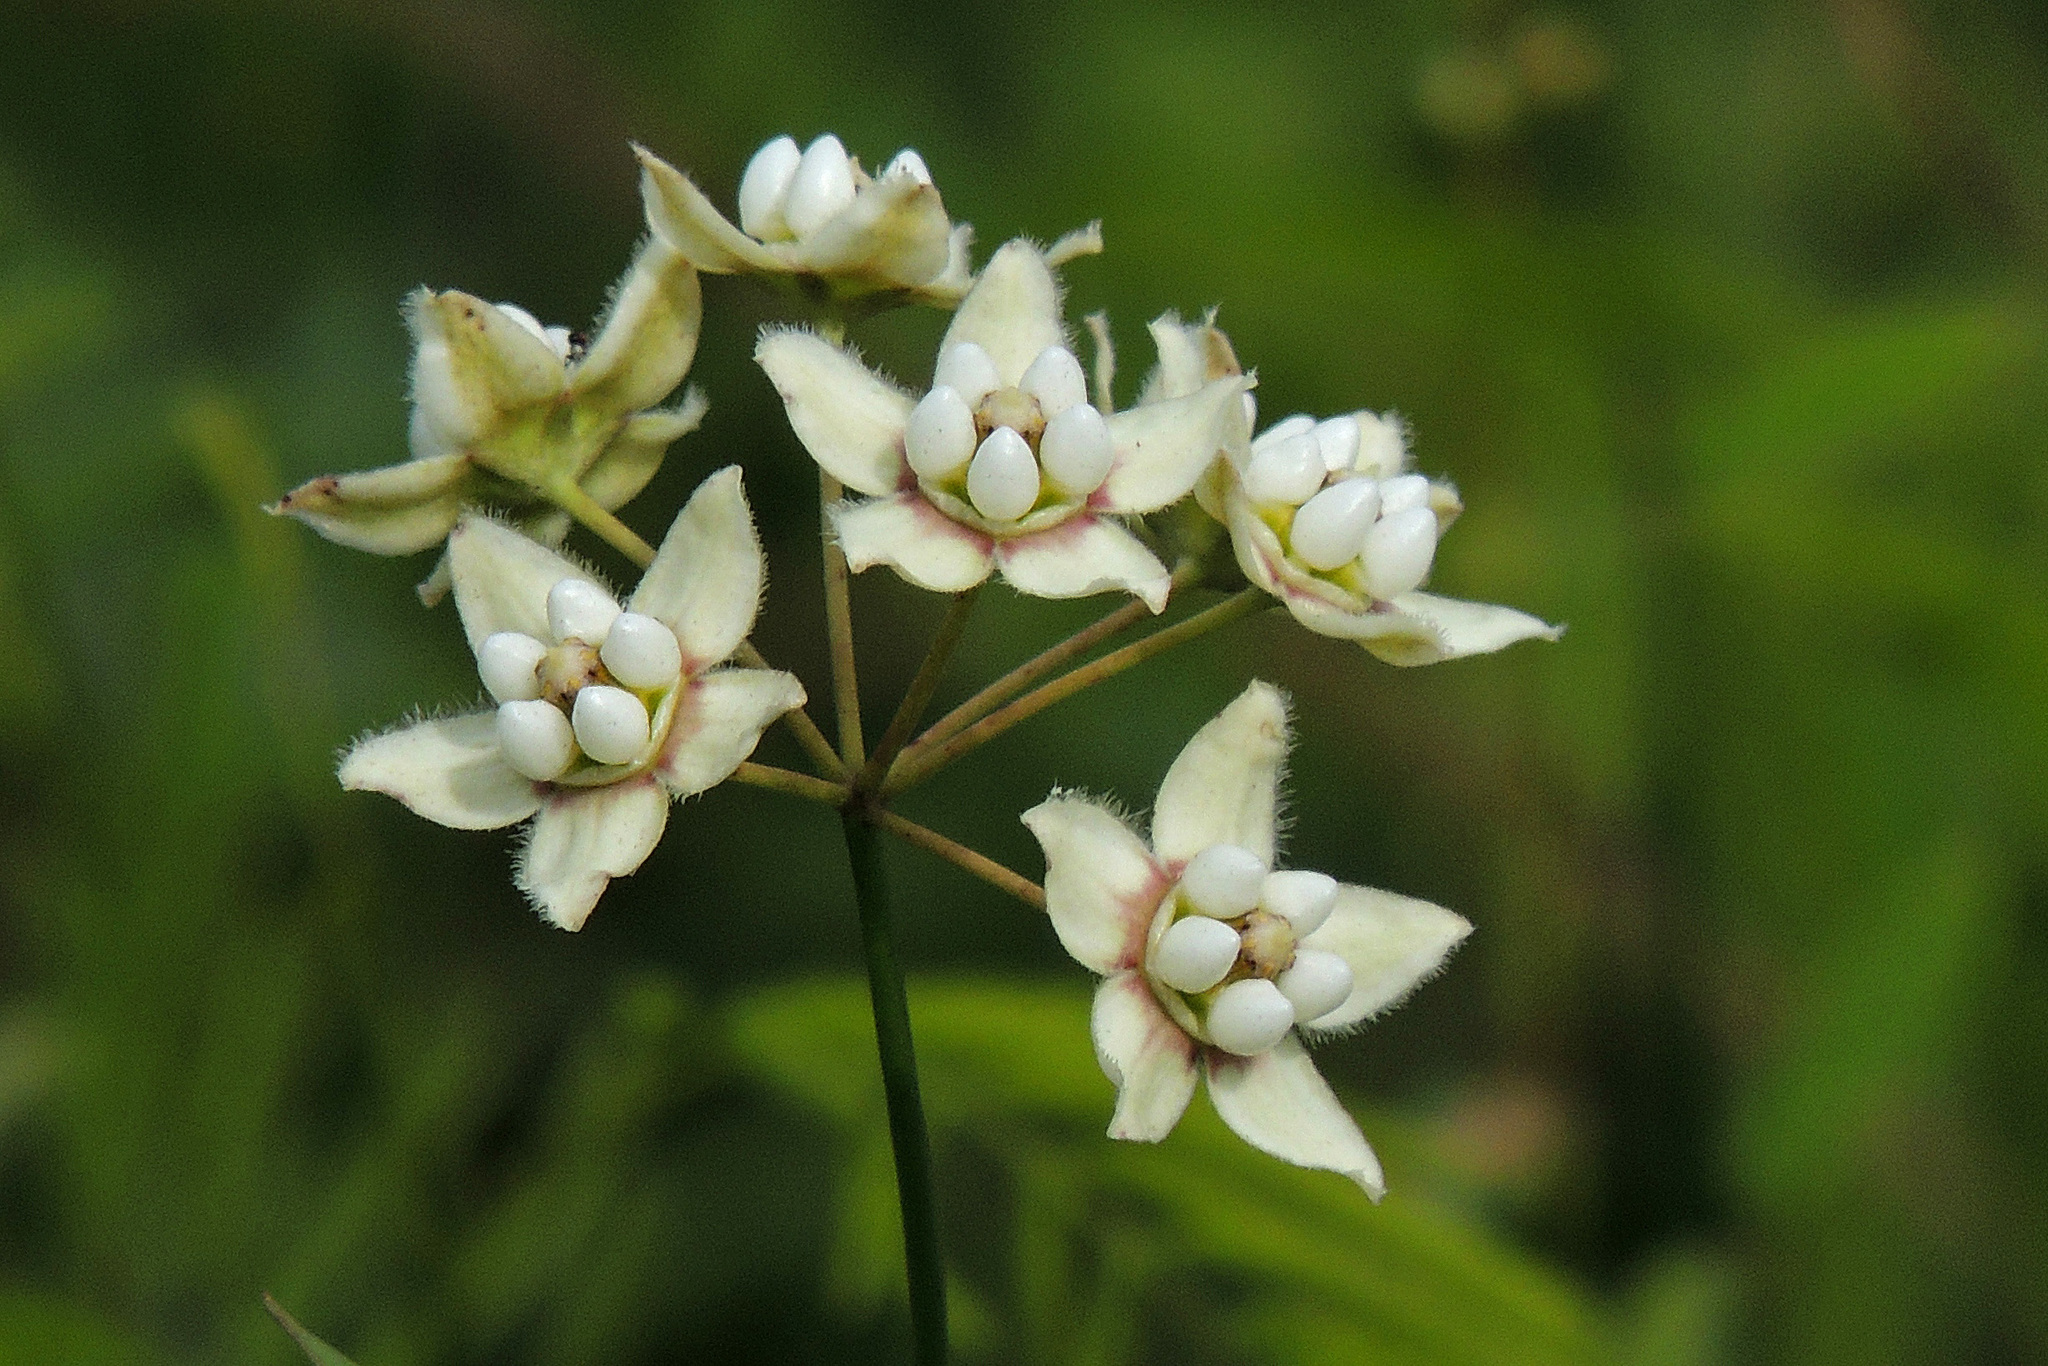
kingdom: Plantae
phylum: Tracheophyta
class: Magnoliopsida
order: Gentianales
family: Apocynaceae
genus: Funastrum
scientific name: Funastrum clausum
